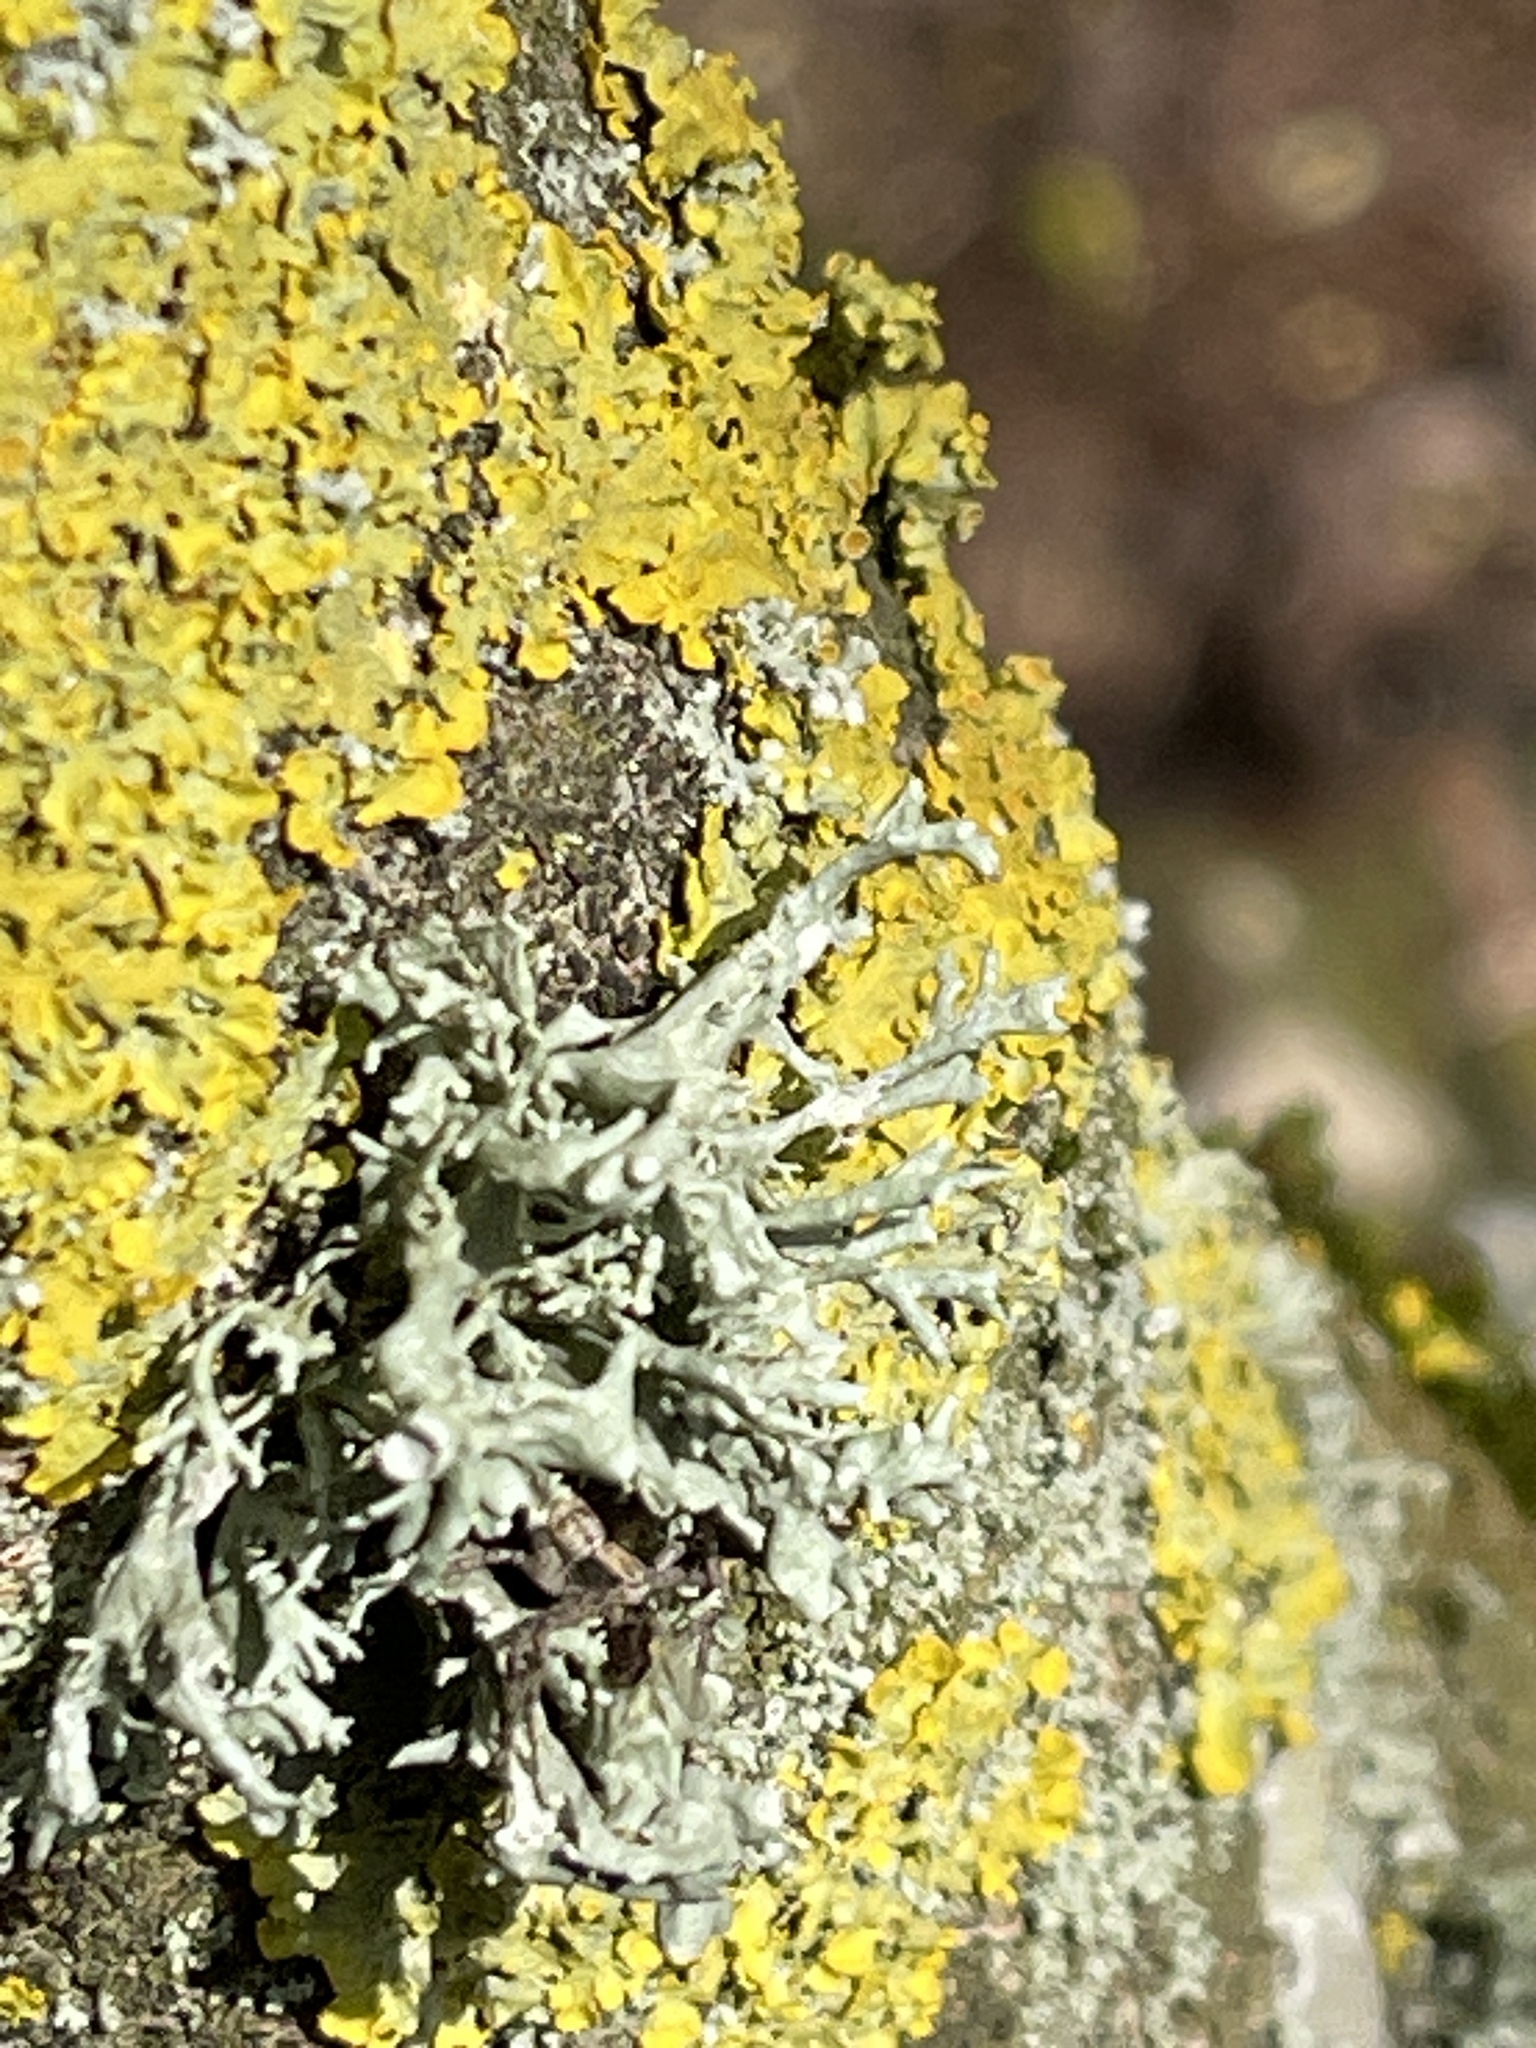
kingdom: Fungi
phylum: Ascomycota
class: Lecanoromycetes
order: Lecanorales
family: Parmeliaceae
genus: Evernia
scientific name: Evernia prunastri
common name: Oak moss
